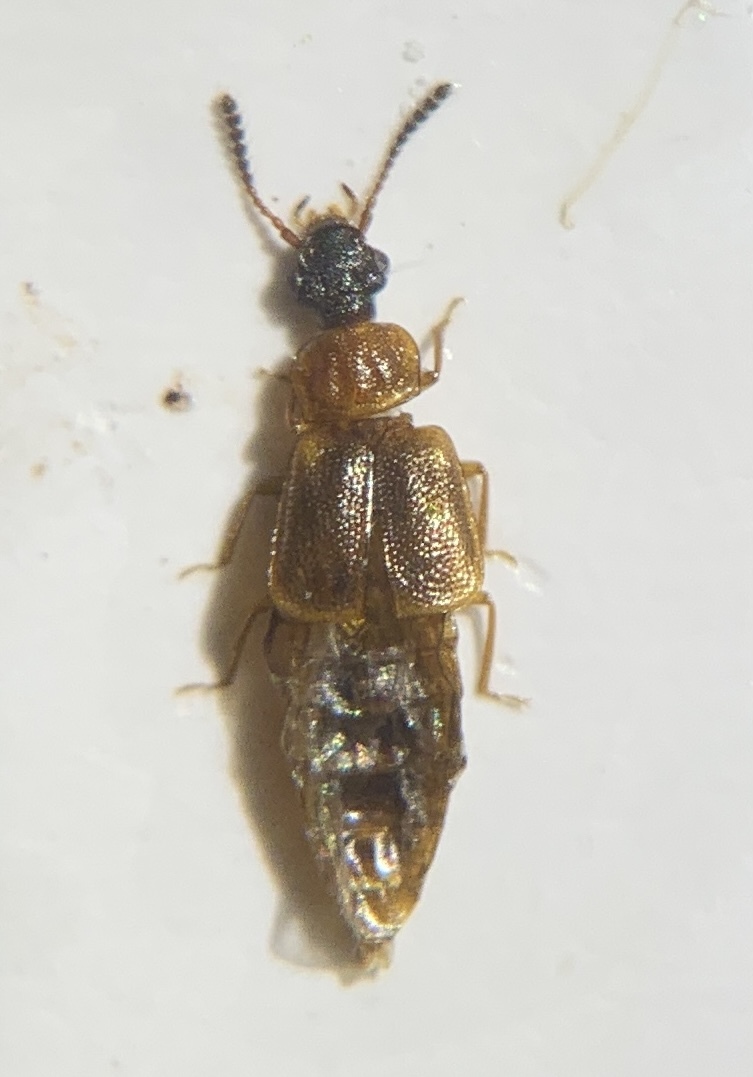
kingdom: Animalia
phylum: Arthropoda
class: Insecta
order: Coleoptera
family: Staphylinidae
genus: Omalium
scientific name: Omalium italicum
